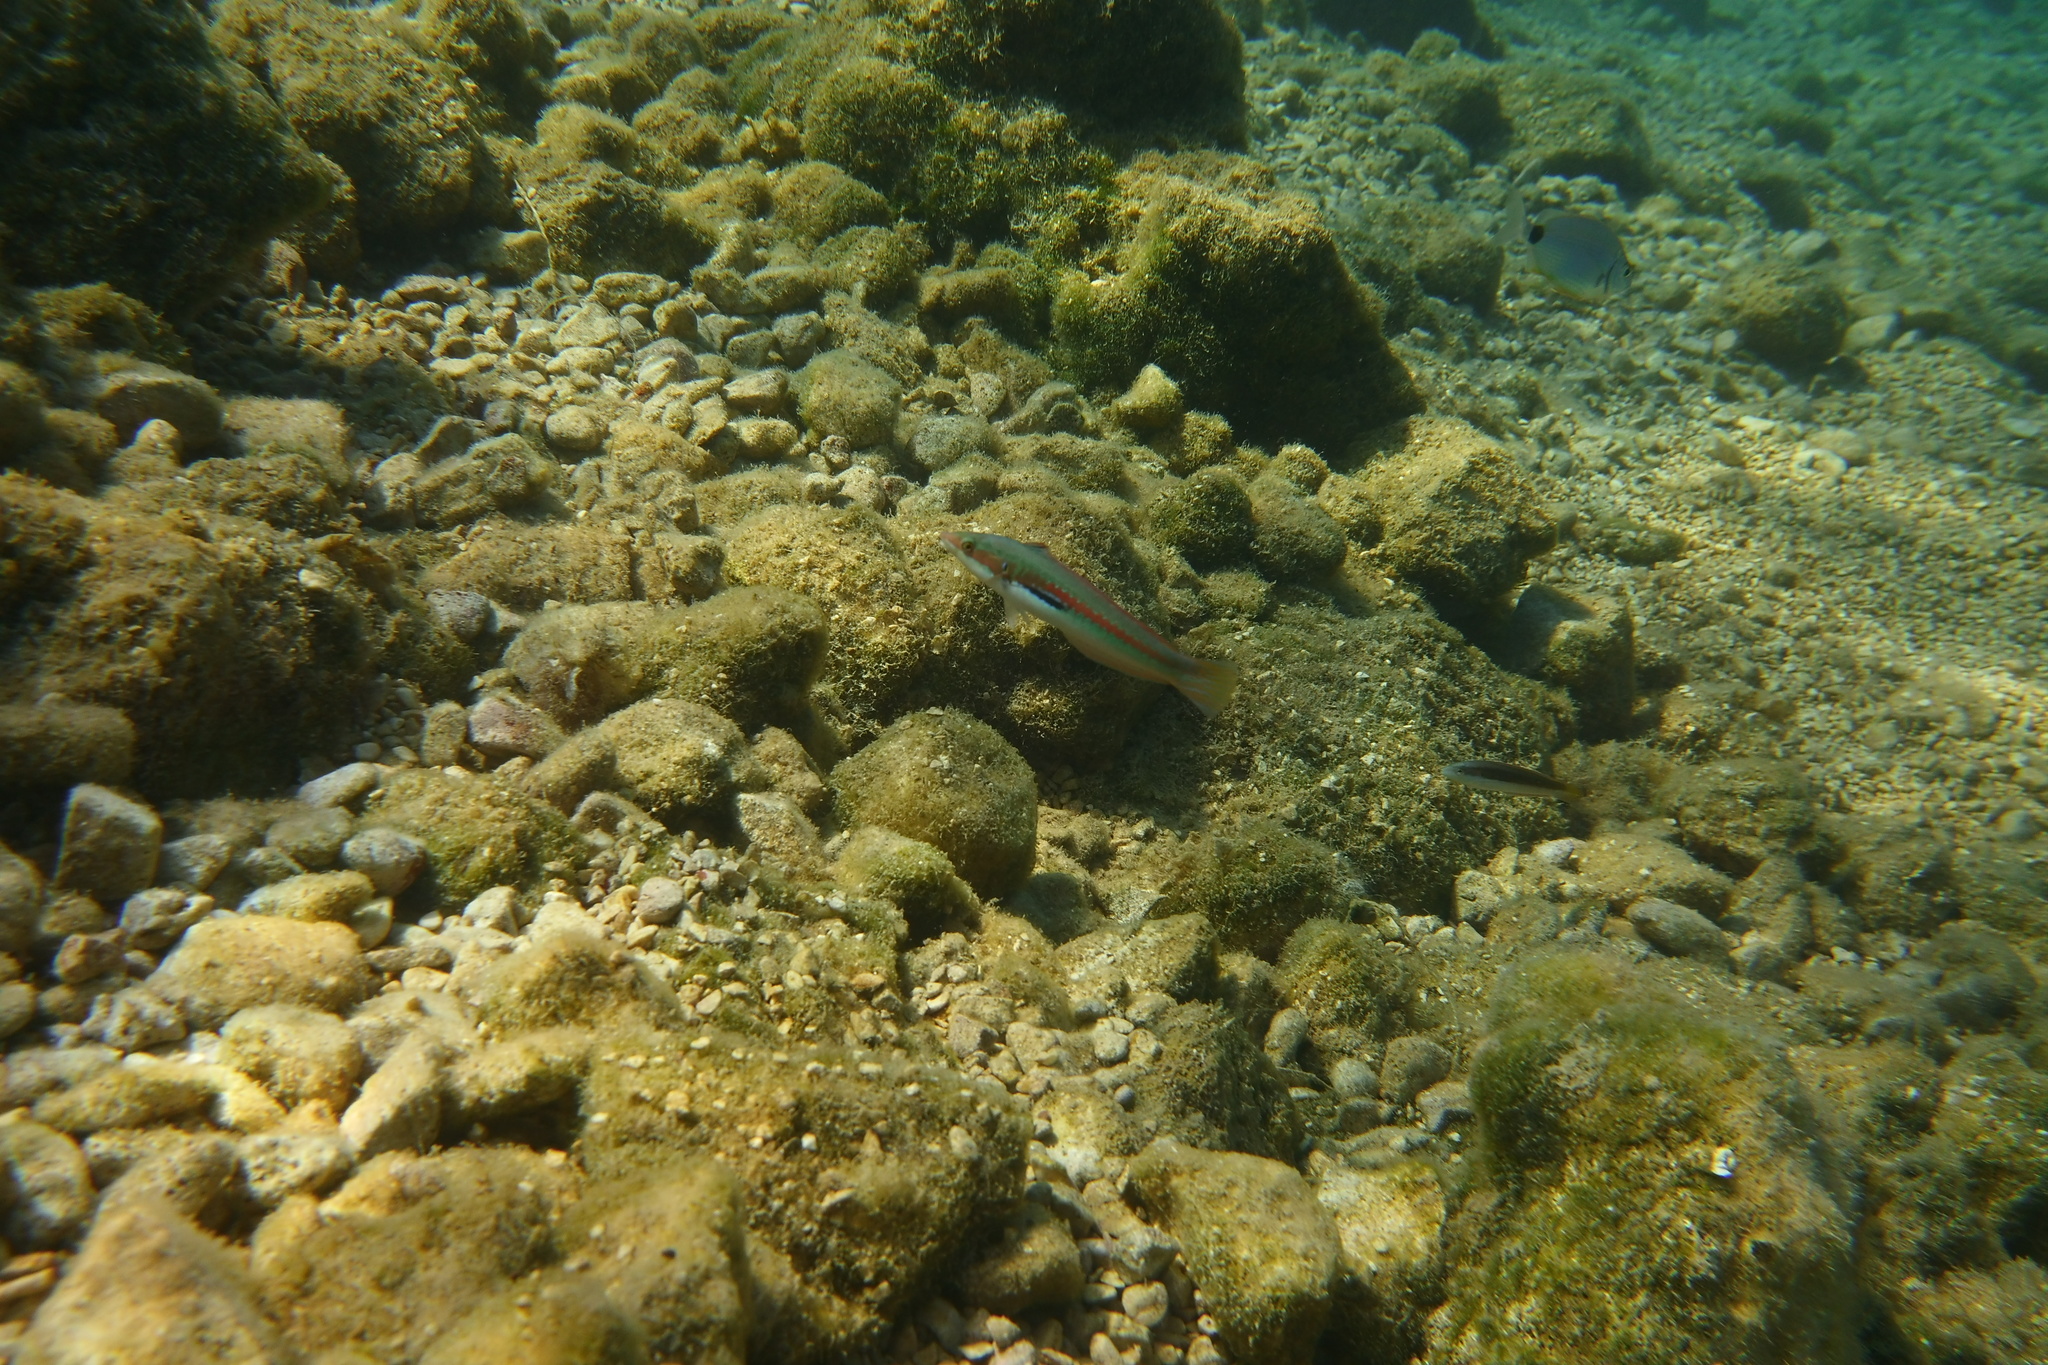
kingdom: Animalia
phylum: Chordata
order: Perciformes
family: Labridae
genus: Coris
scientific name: Coris julis
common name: Rainbow wrasse
